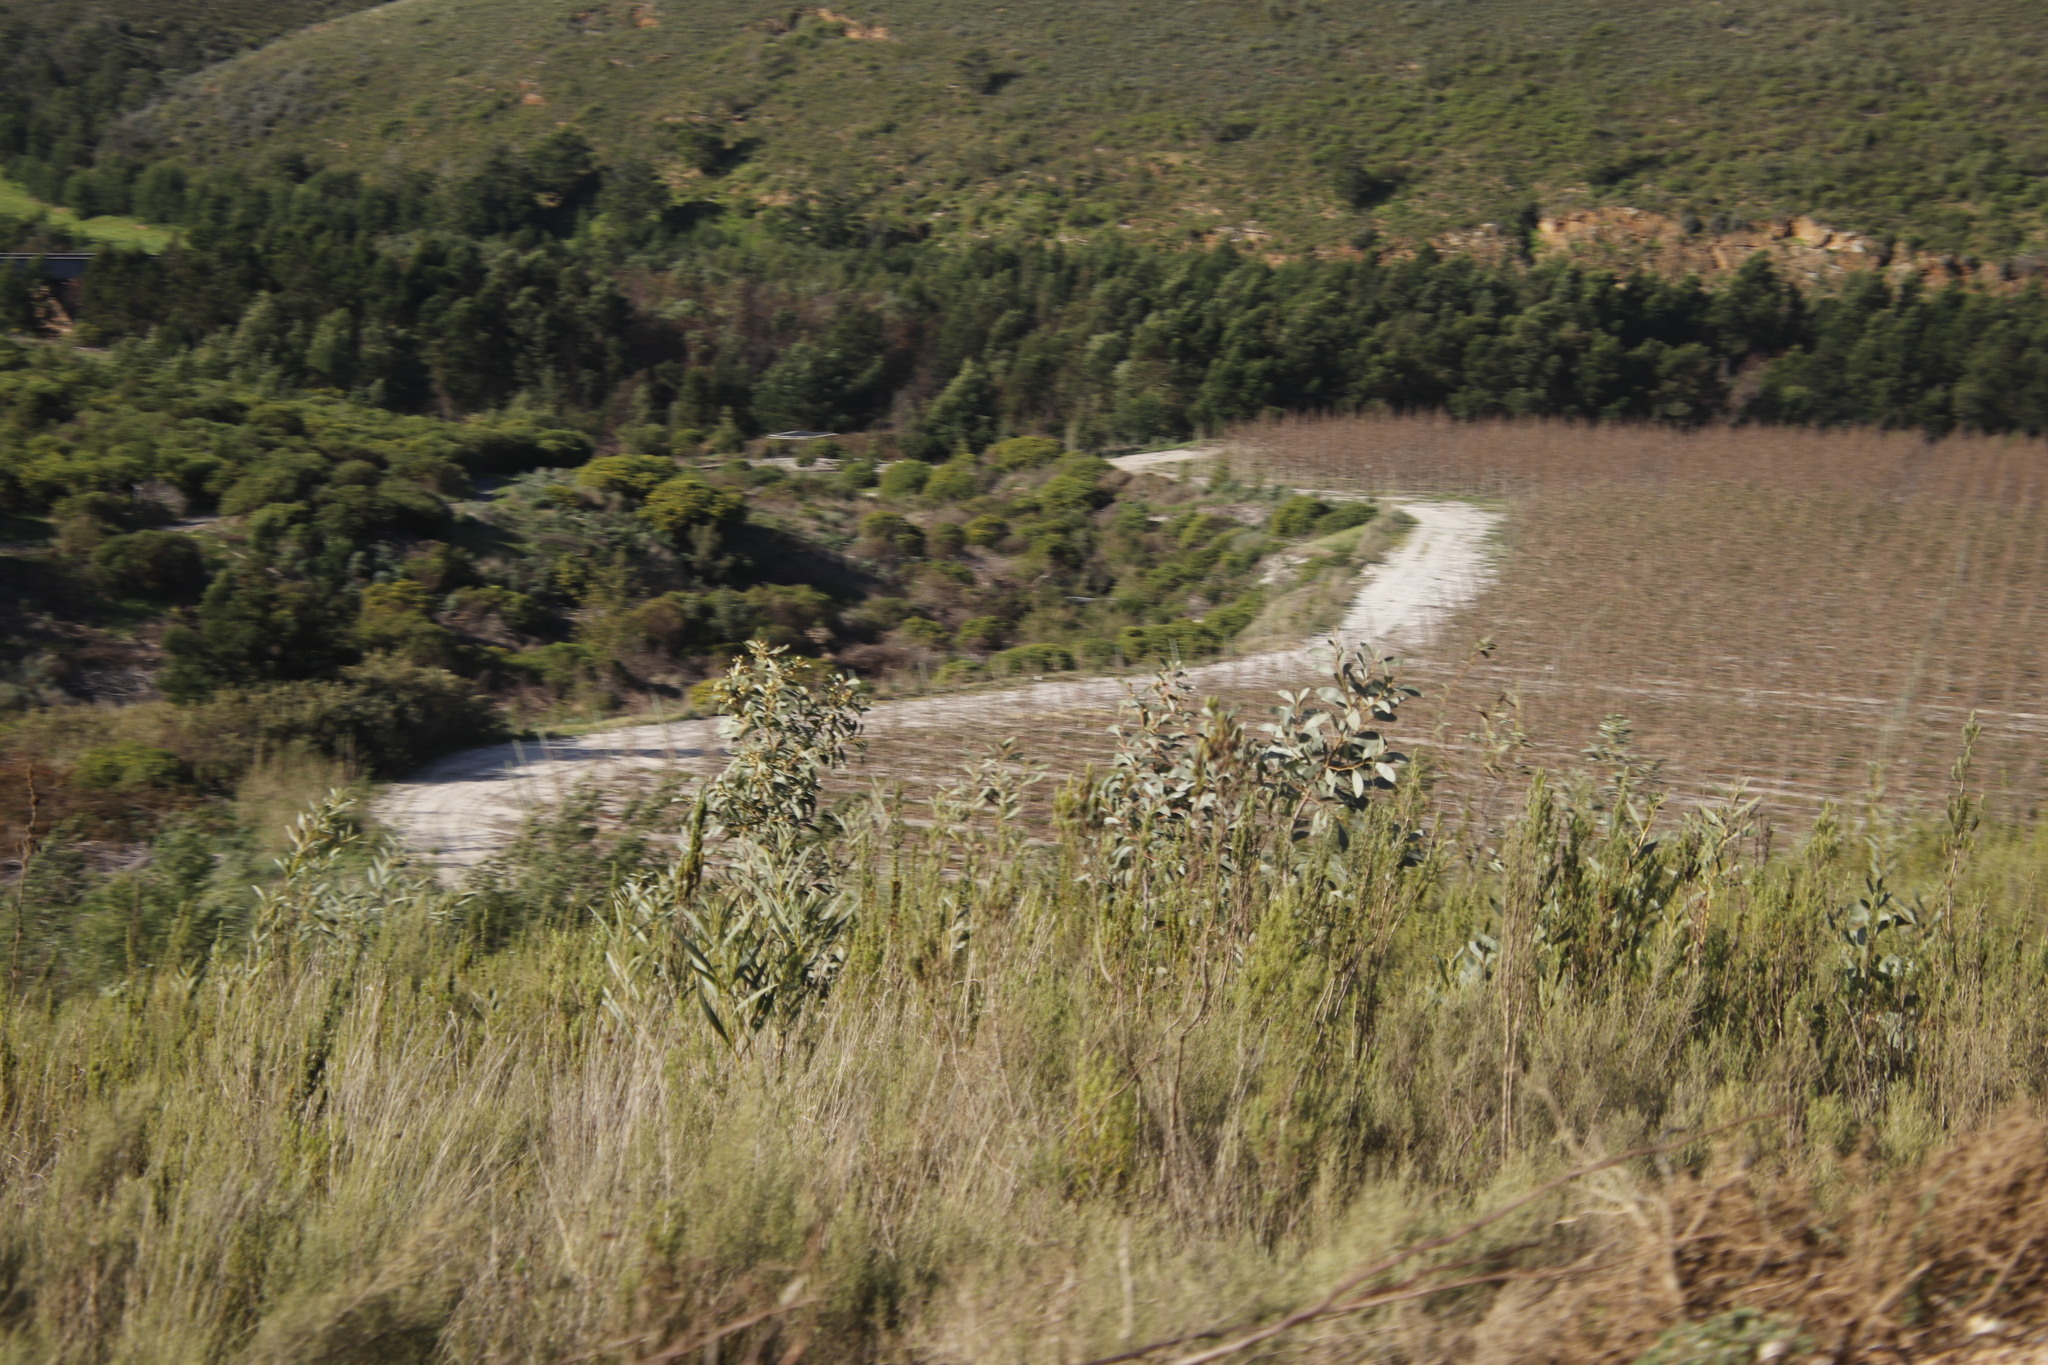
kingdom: Plantae
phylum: Tracheophyta
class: Magnoliopsida
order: Fabales
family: Fabaceae
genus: Acacia
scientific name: Acacia pycnantha
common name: Golden wattle
